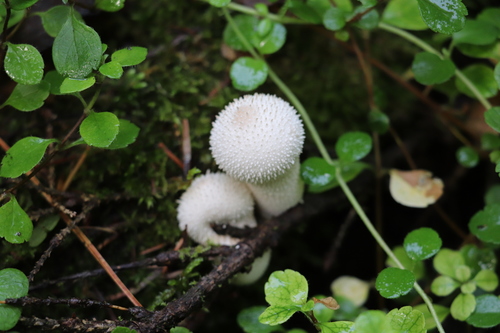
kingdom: Fungi
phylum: Basidiomycota
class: Agaricomycetes
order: Agaricales
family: Lycoperdaceae
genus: Lycoperdon
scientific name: Lycoperdon perlatum
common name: Common puffball
